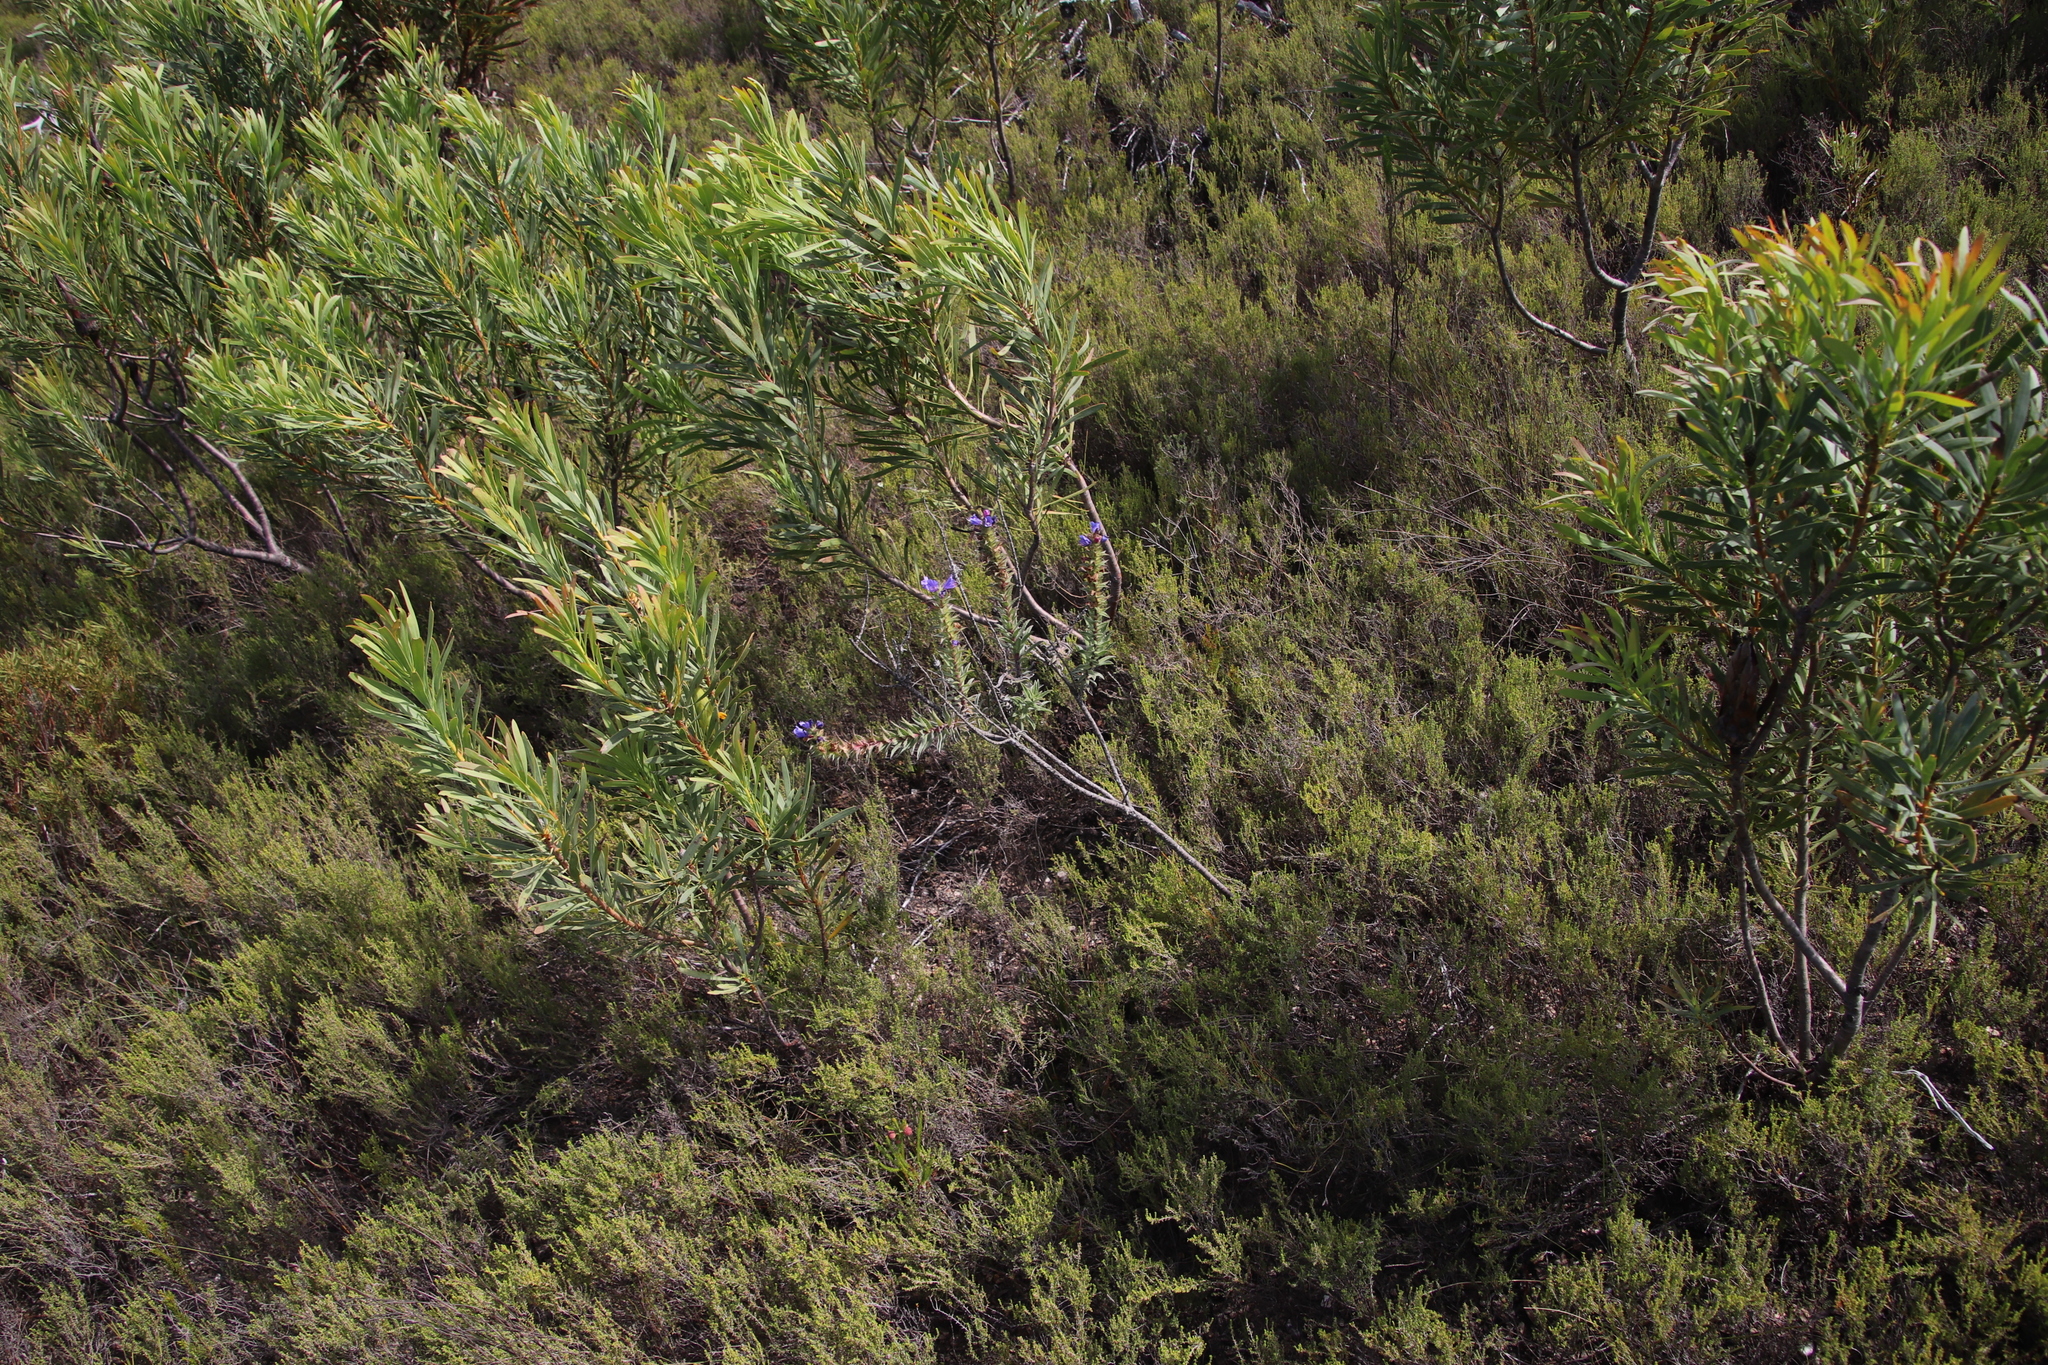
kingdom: Plantae
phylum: Tracheophyta
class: Magnoliopsida
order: Boraginales
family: Boraginaceae
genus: Lobostemon
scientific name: Lobostemon argenteus
